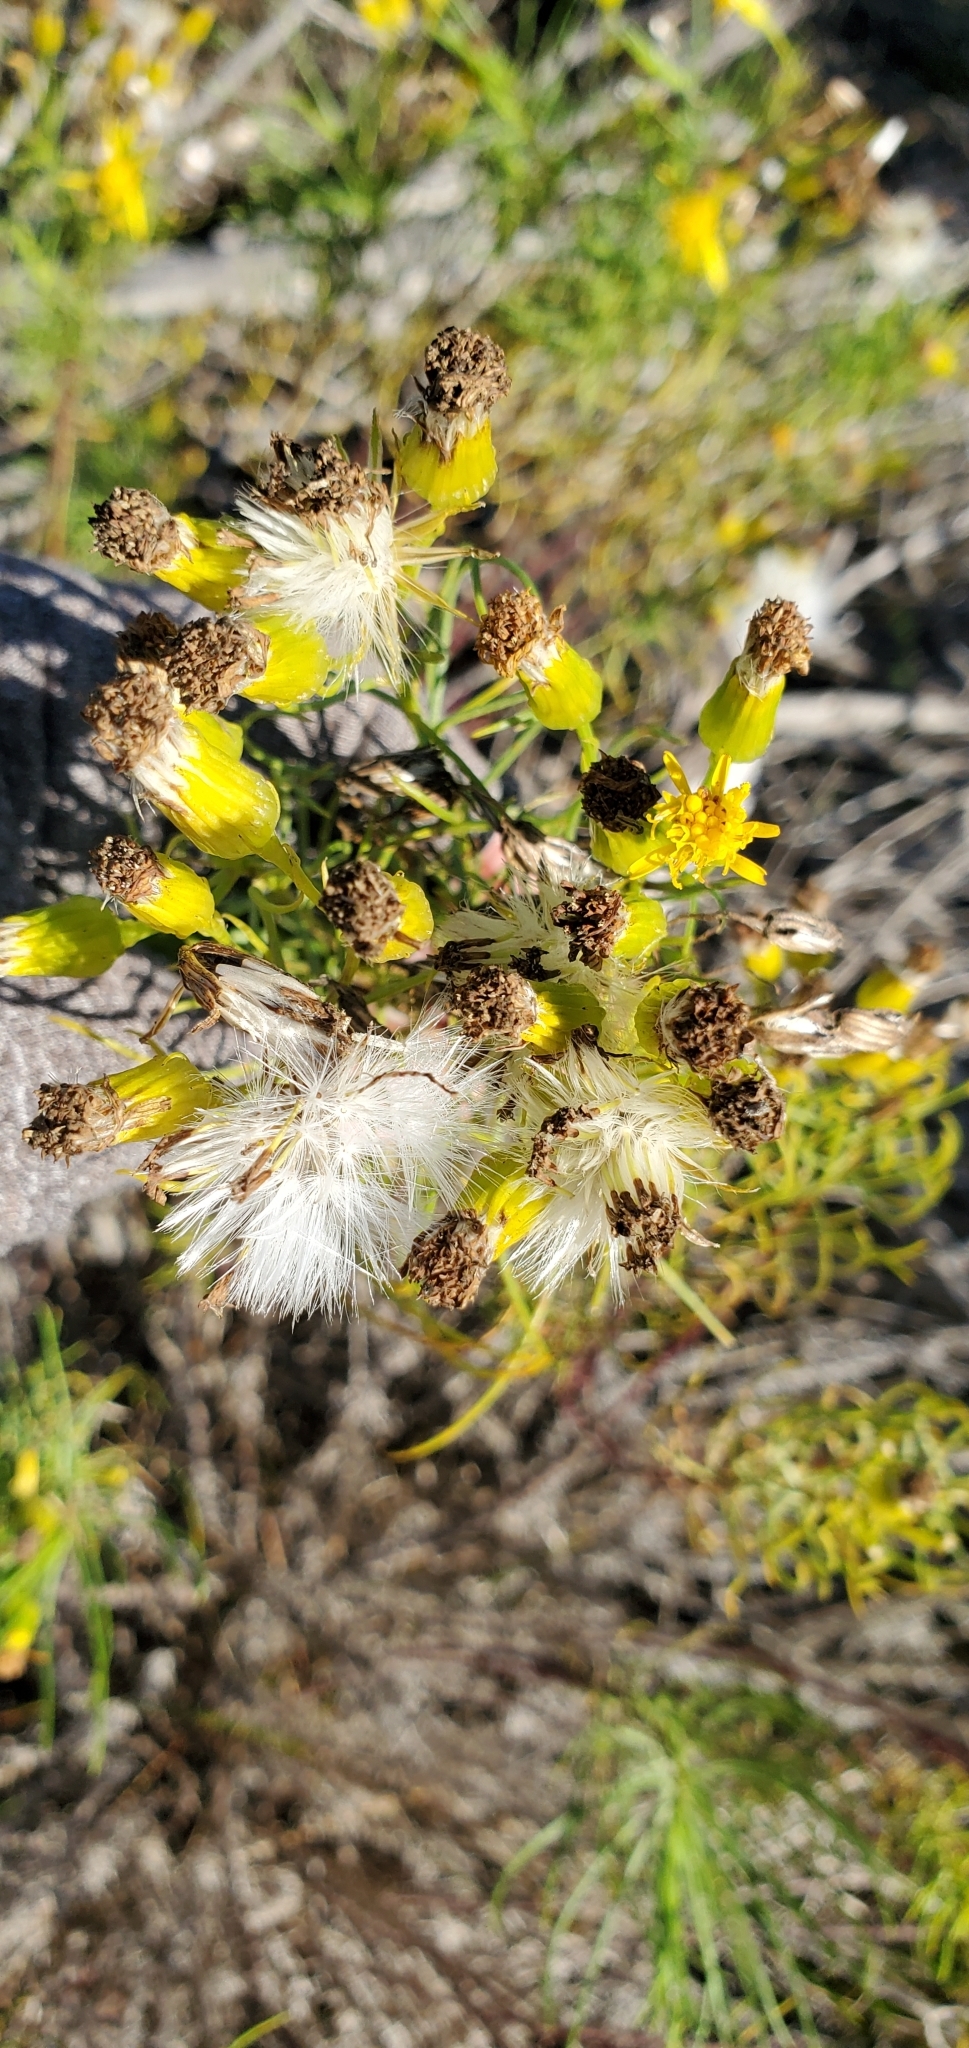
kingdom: Plantae
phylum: Tracheophyta
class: Magnoliopsida
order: Asterales
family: Asteraceae
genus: Senecio
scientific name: Senecio blochmaniae
